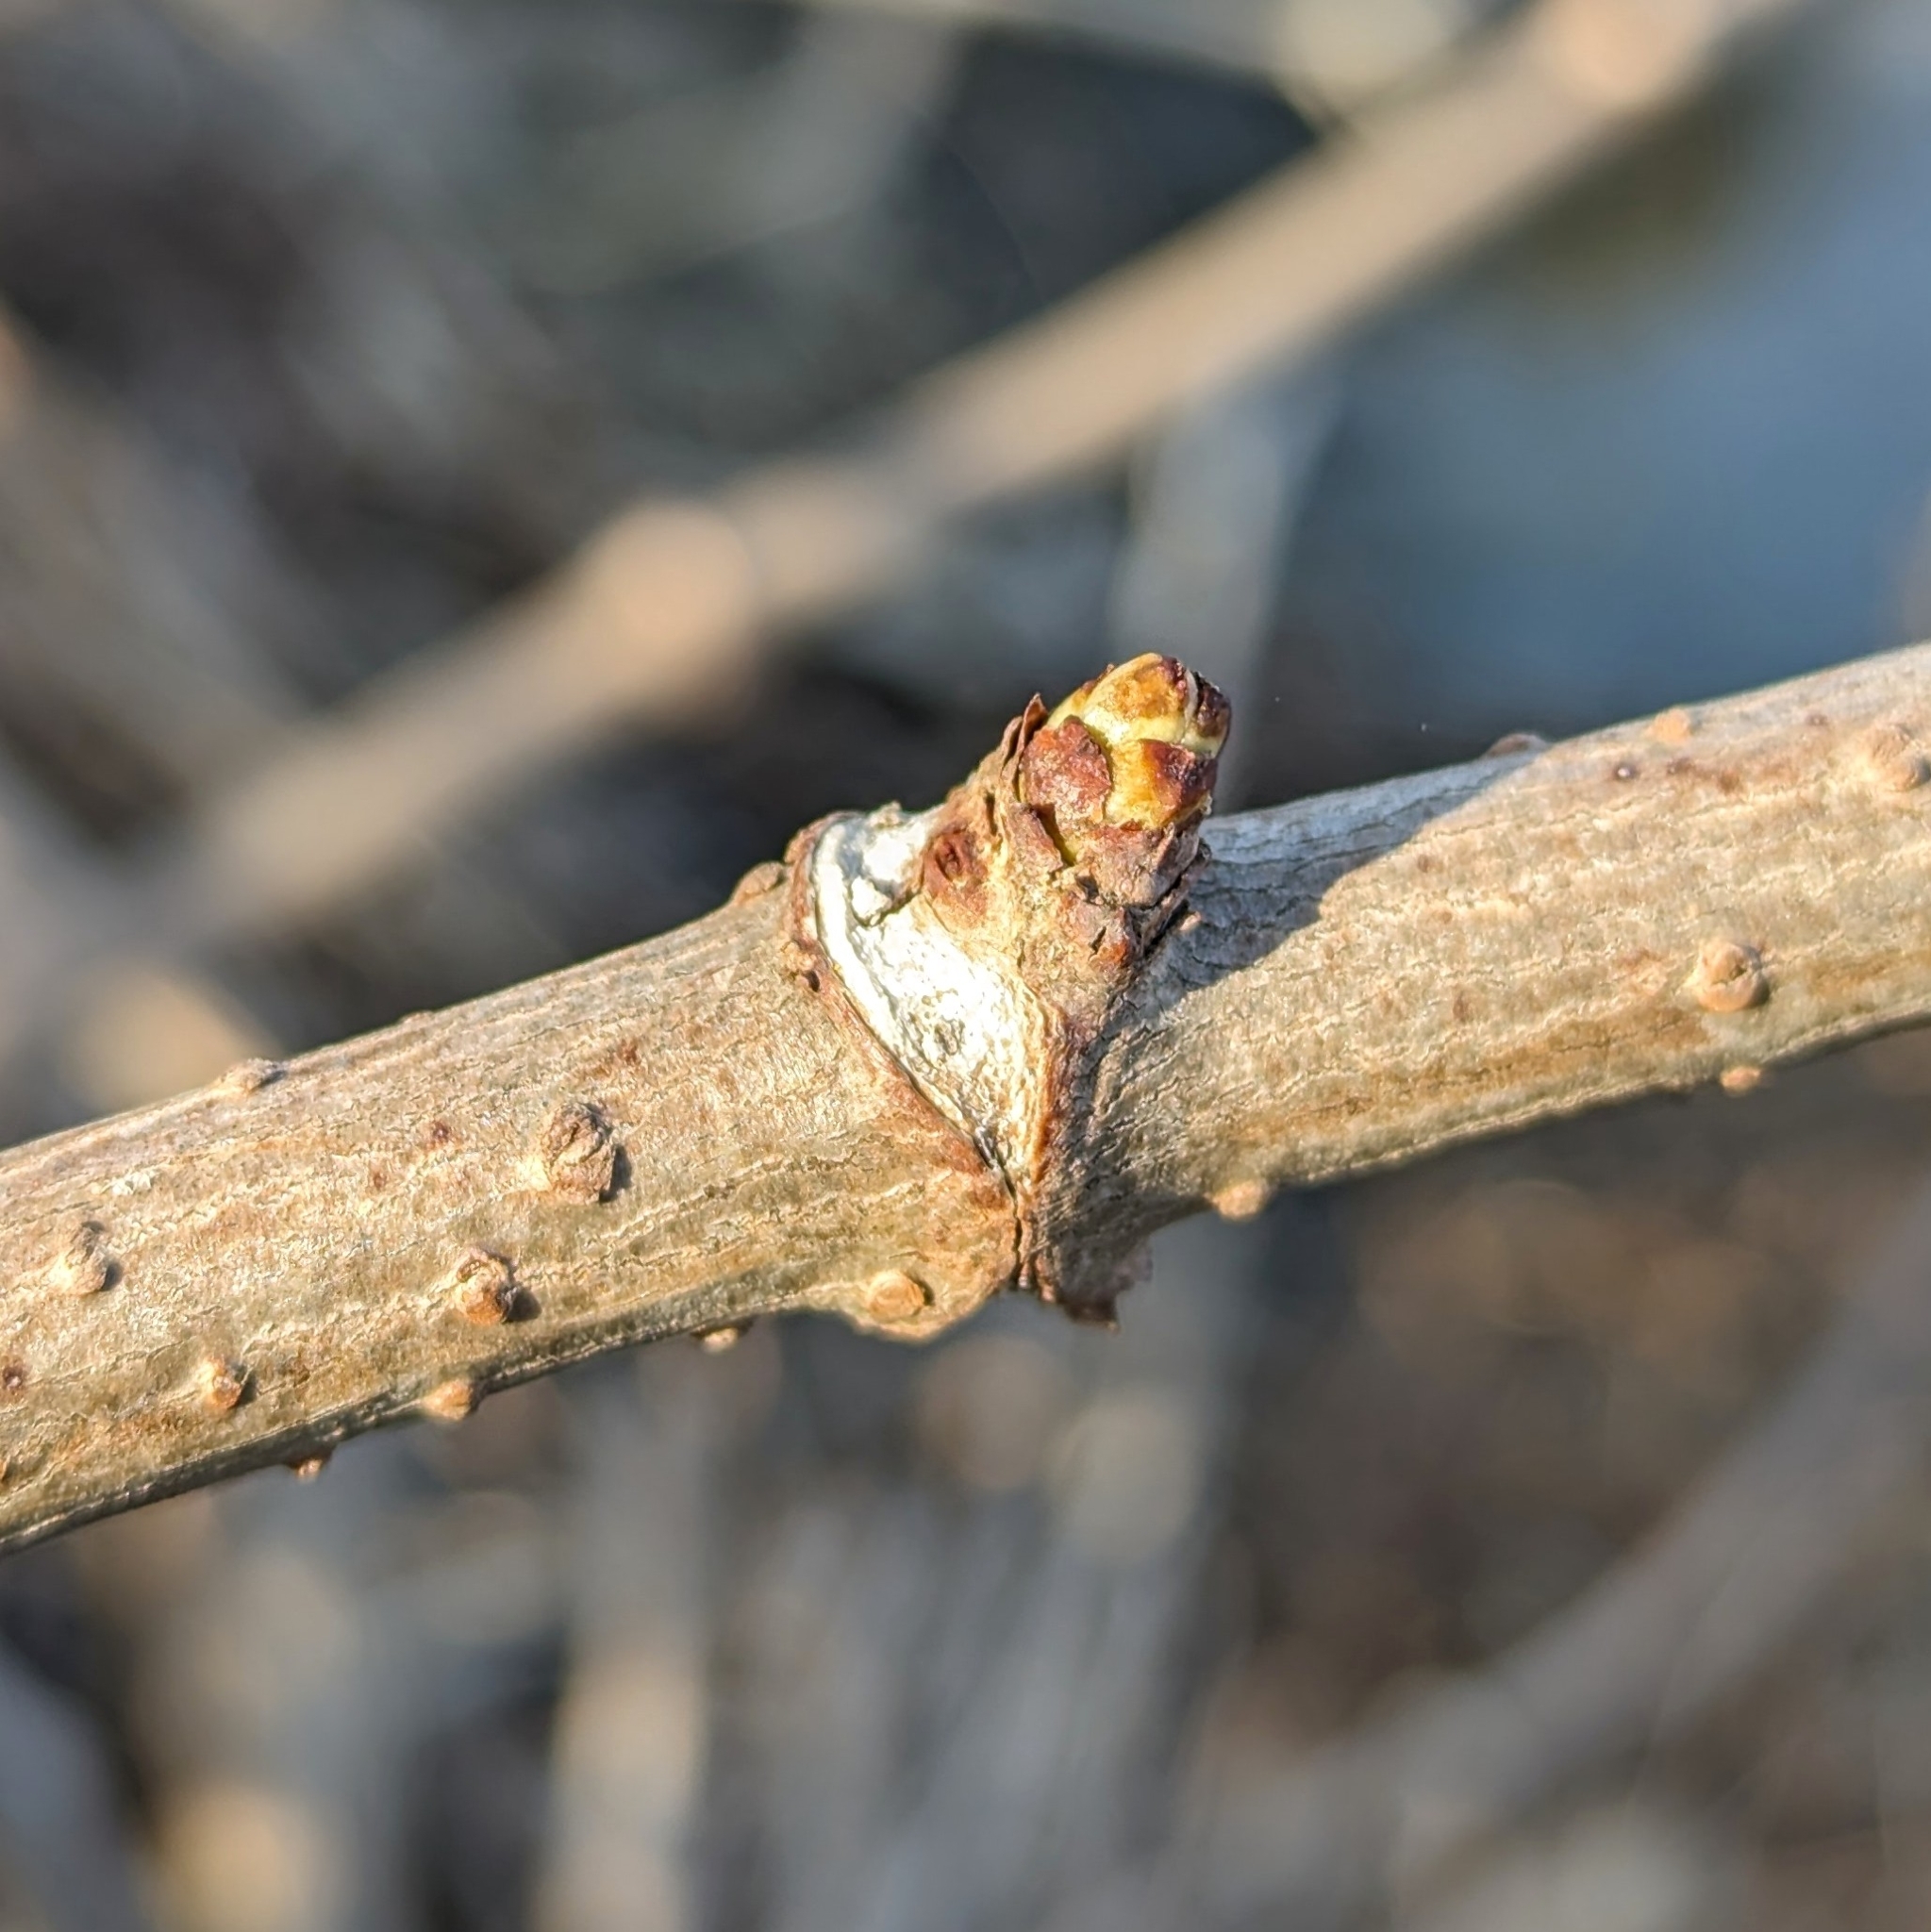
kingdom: Plantae
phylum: Tracheophyta
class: Magnoliopsida
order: Dipsacales
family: Viburnaceae
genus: Sambucus
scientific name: Sambucus canadensis
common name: American elder
